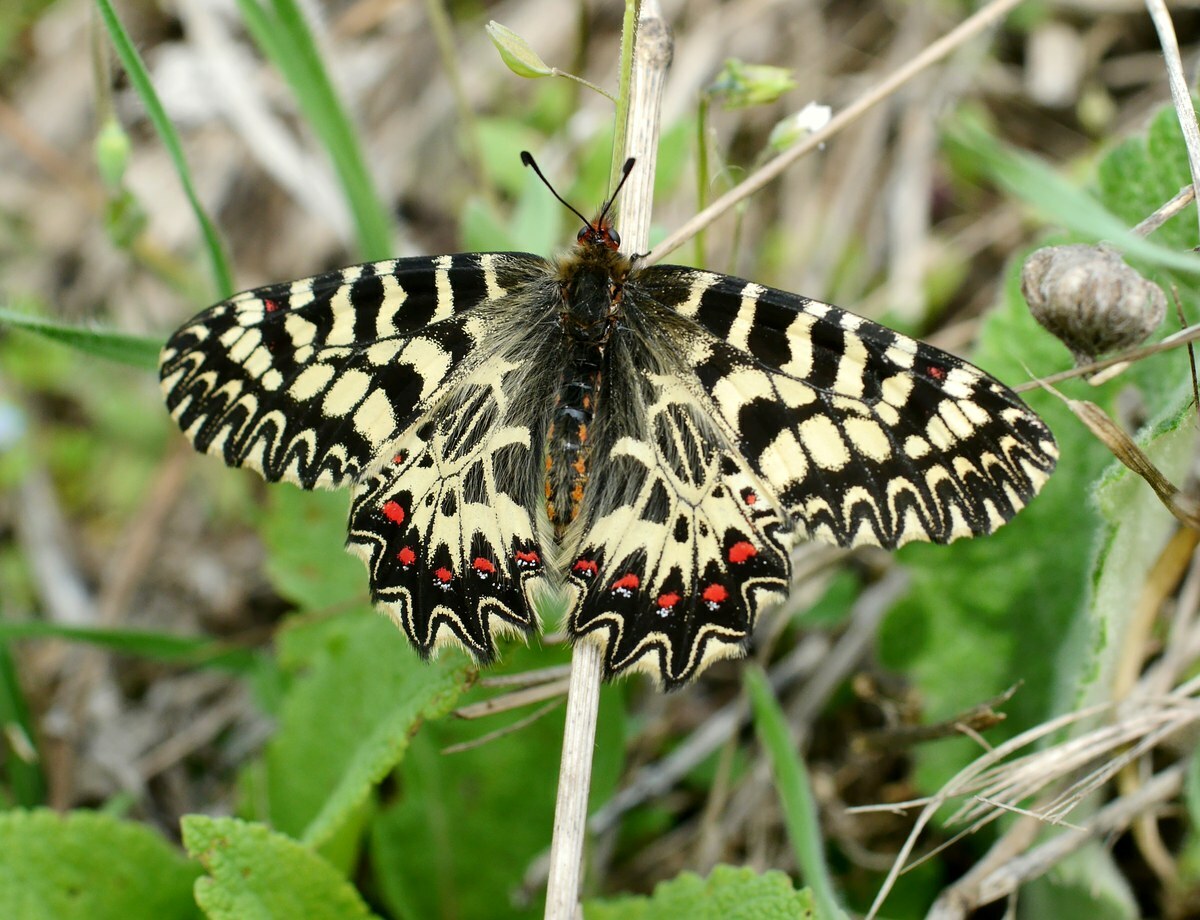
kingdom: Animalia
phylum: Arthropoda
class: Insecta
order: Lepidoptera
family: Papilionidae
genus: Zerynthia
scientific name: Zerynthia polyxena
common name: Southern festoon
